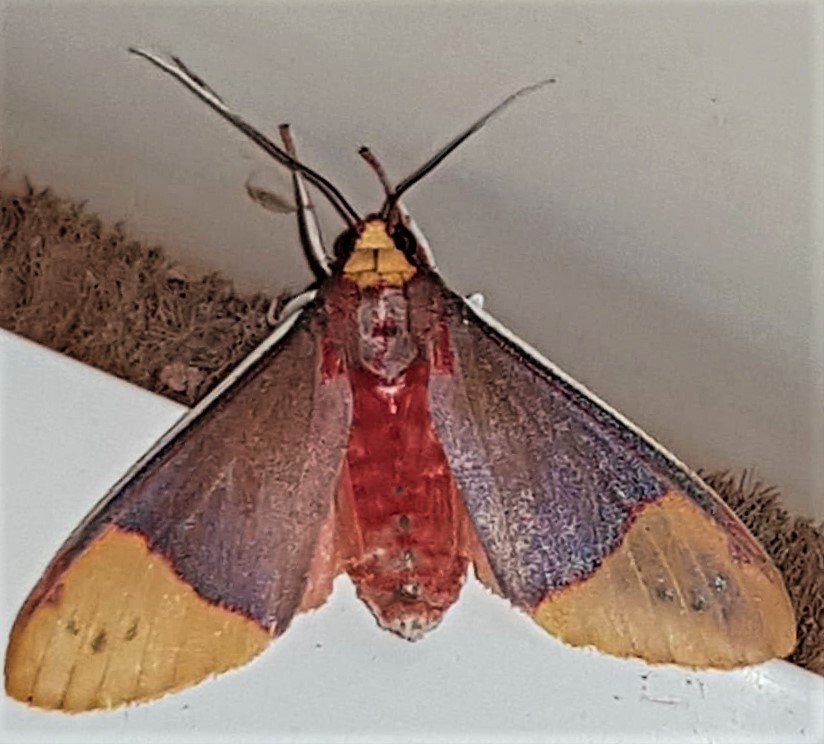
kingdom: Animalia
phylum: Arthropoda
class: Insecta
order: Lepidoptera
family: Erebidae
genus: Evius
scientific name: Evius albicoxae
